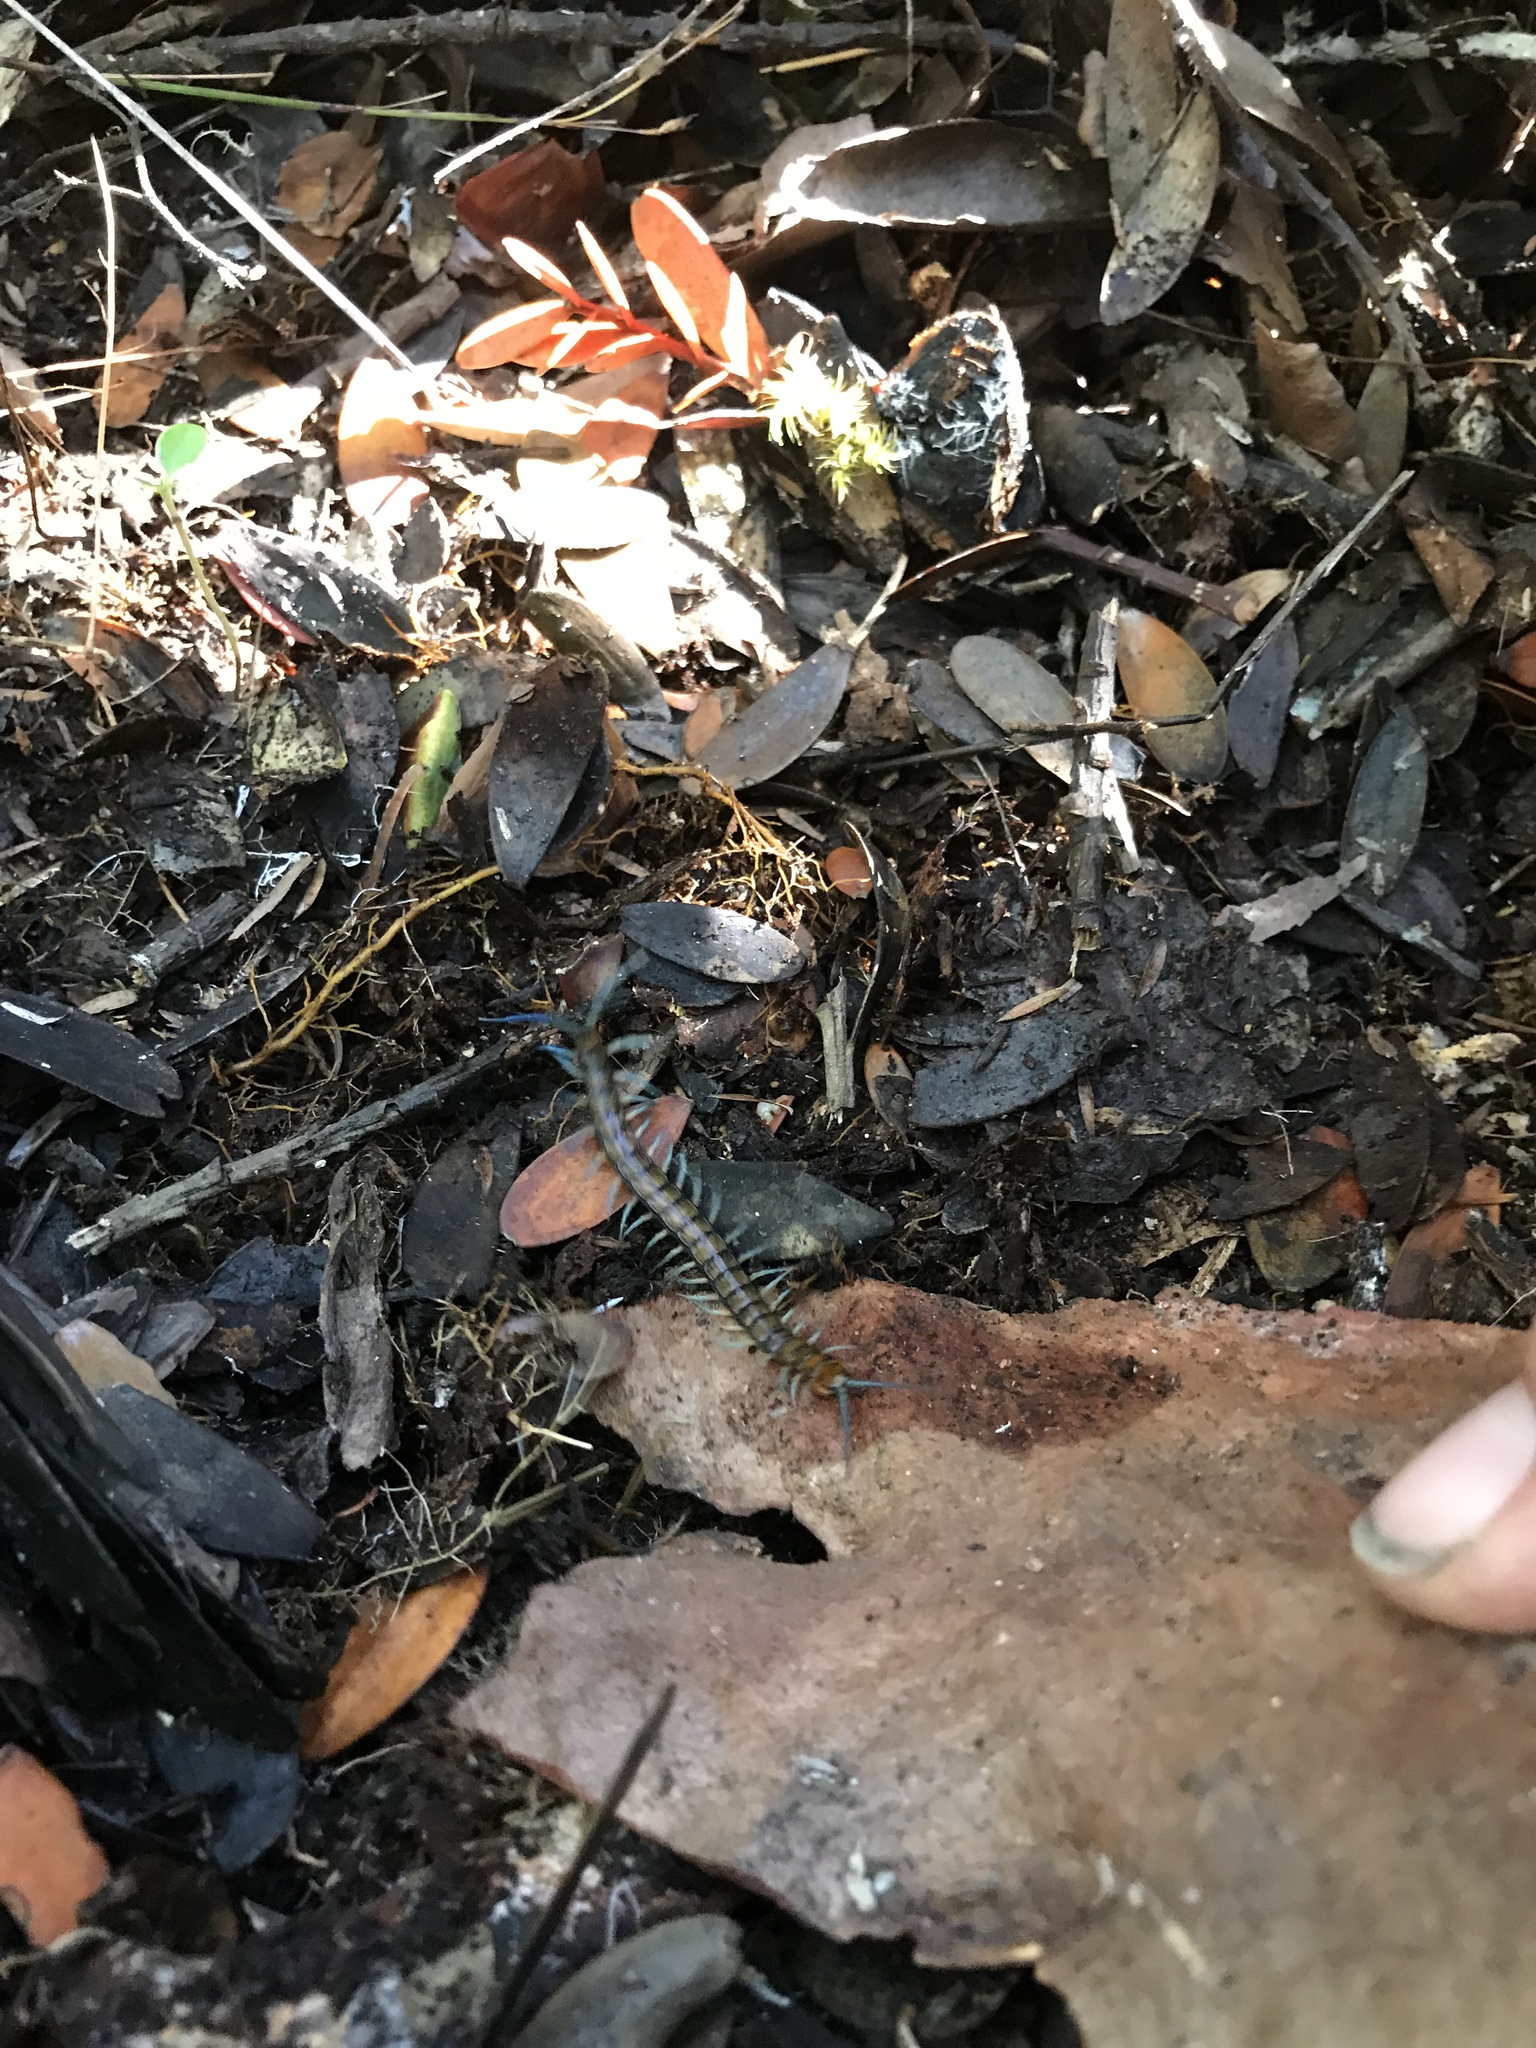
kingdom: Animalia
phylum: Arthropoda
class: Chilopoda
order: Scolopendromorpha
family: Scolopendridae
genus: Cormocephalus
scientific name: Cormocephalus rubriceps
